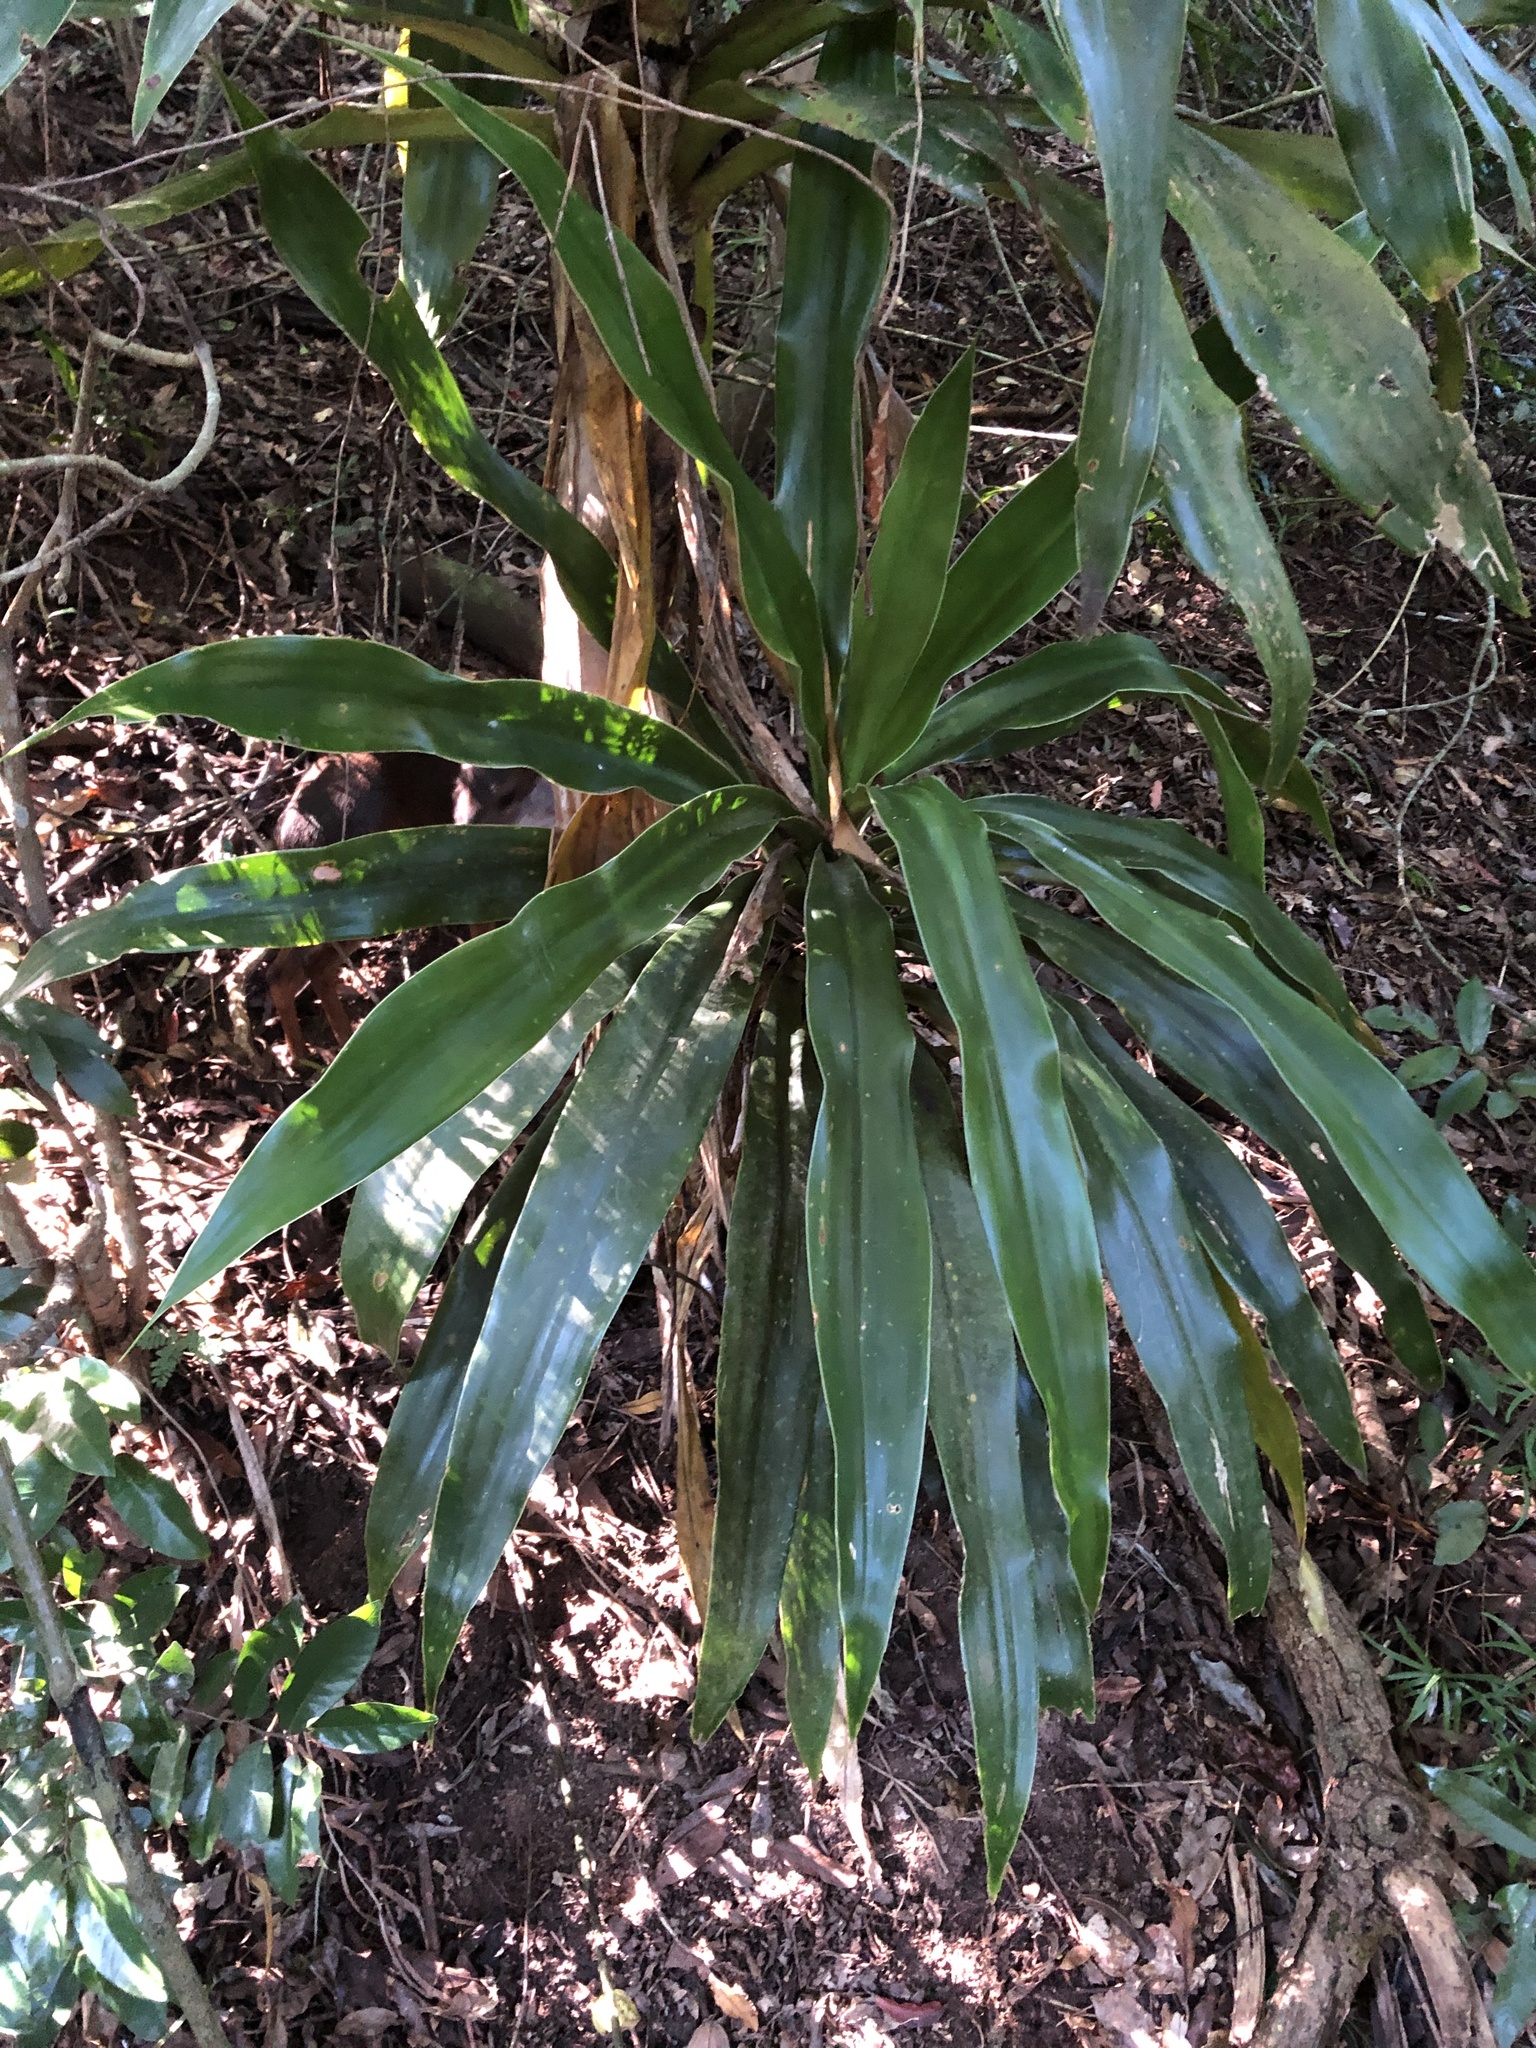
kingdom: Plantae
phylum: Tracheophyta
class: Liliopsida
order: Asparagales
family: Asparagaceae
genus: Dracaena
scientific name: Dracaena aletriformis
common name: Large-leaved dragon tree
